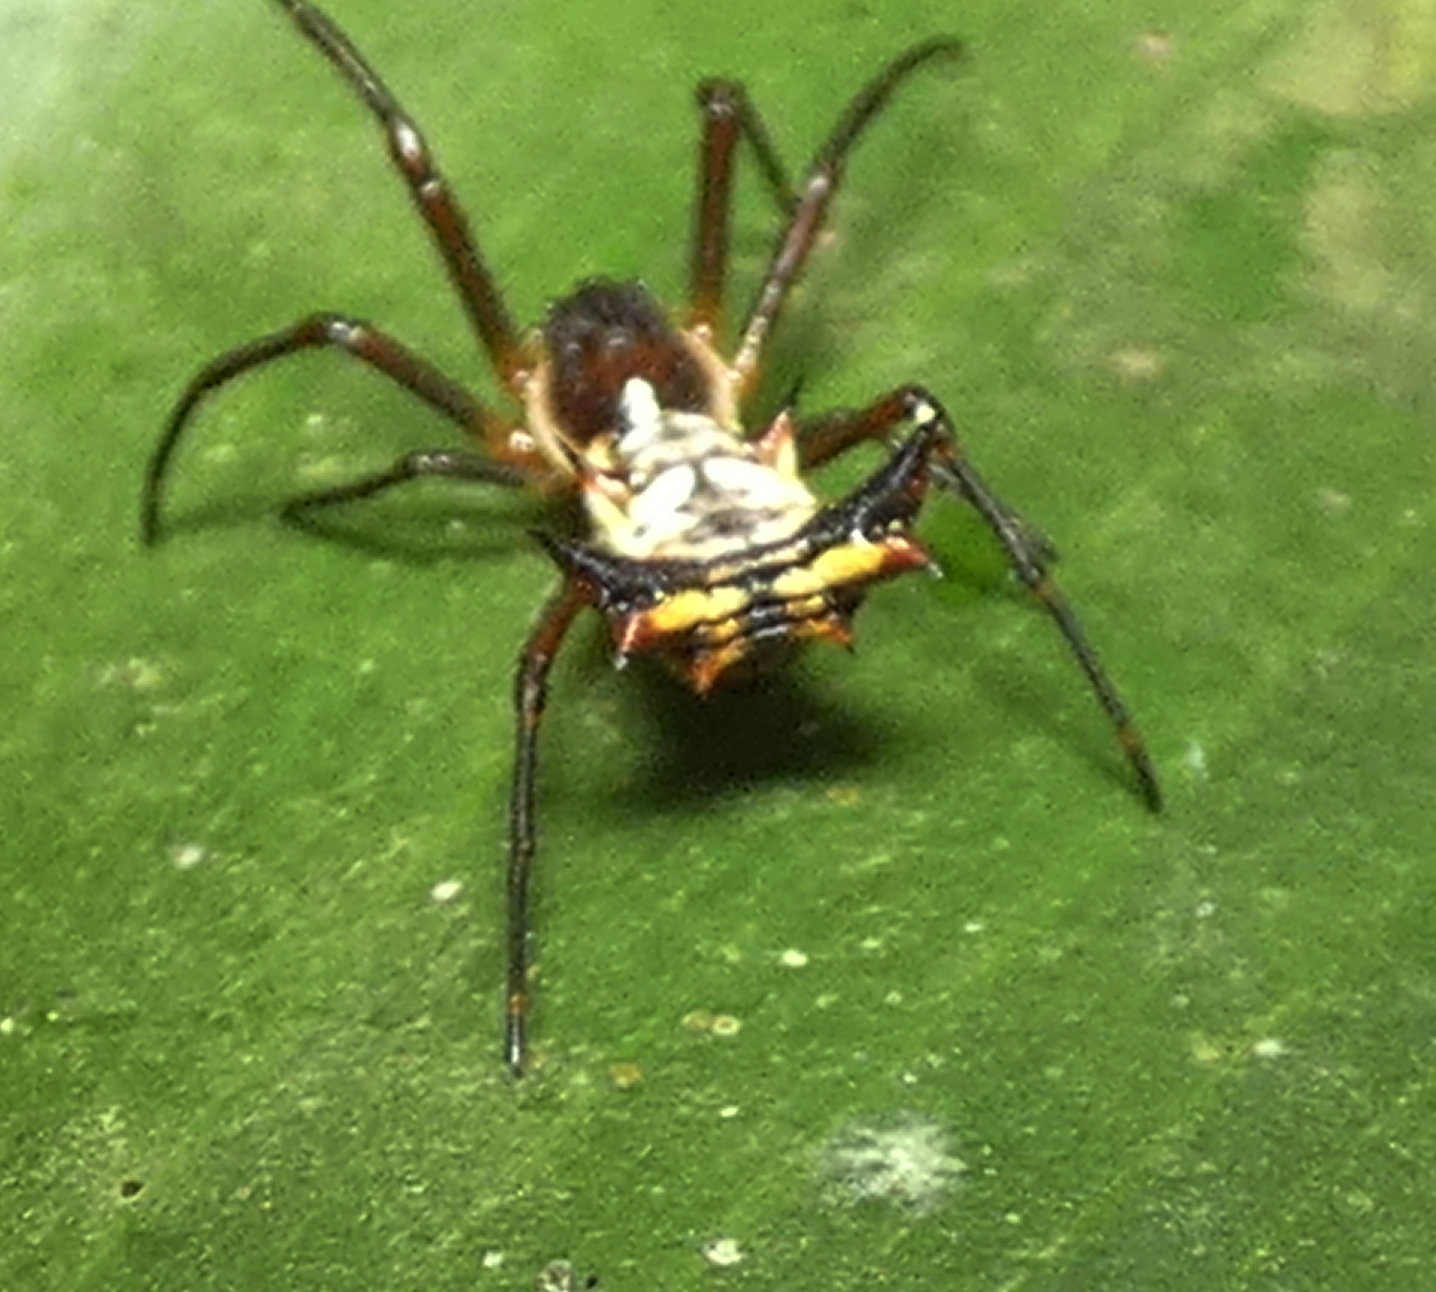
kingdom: Animalia
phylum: Arthropoda
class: Arachnida
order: Araneae
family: Araneidae
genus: Micrathena
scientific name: Micrathena fissispina
